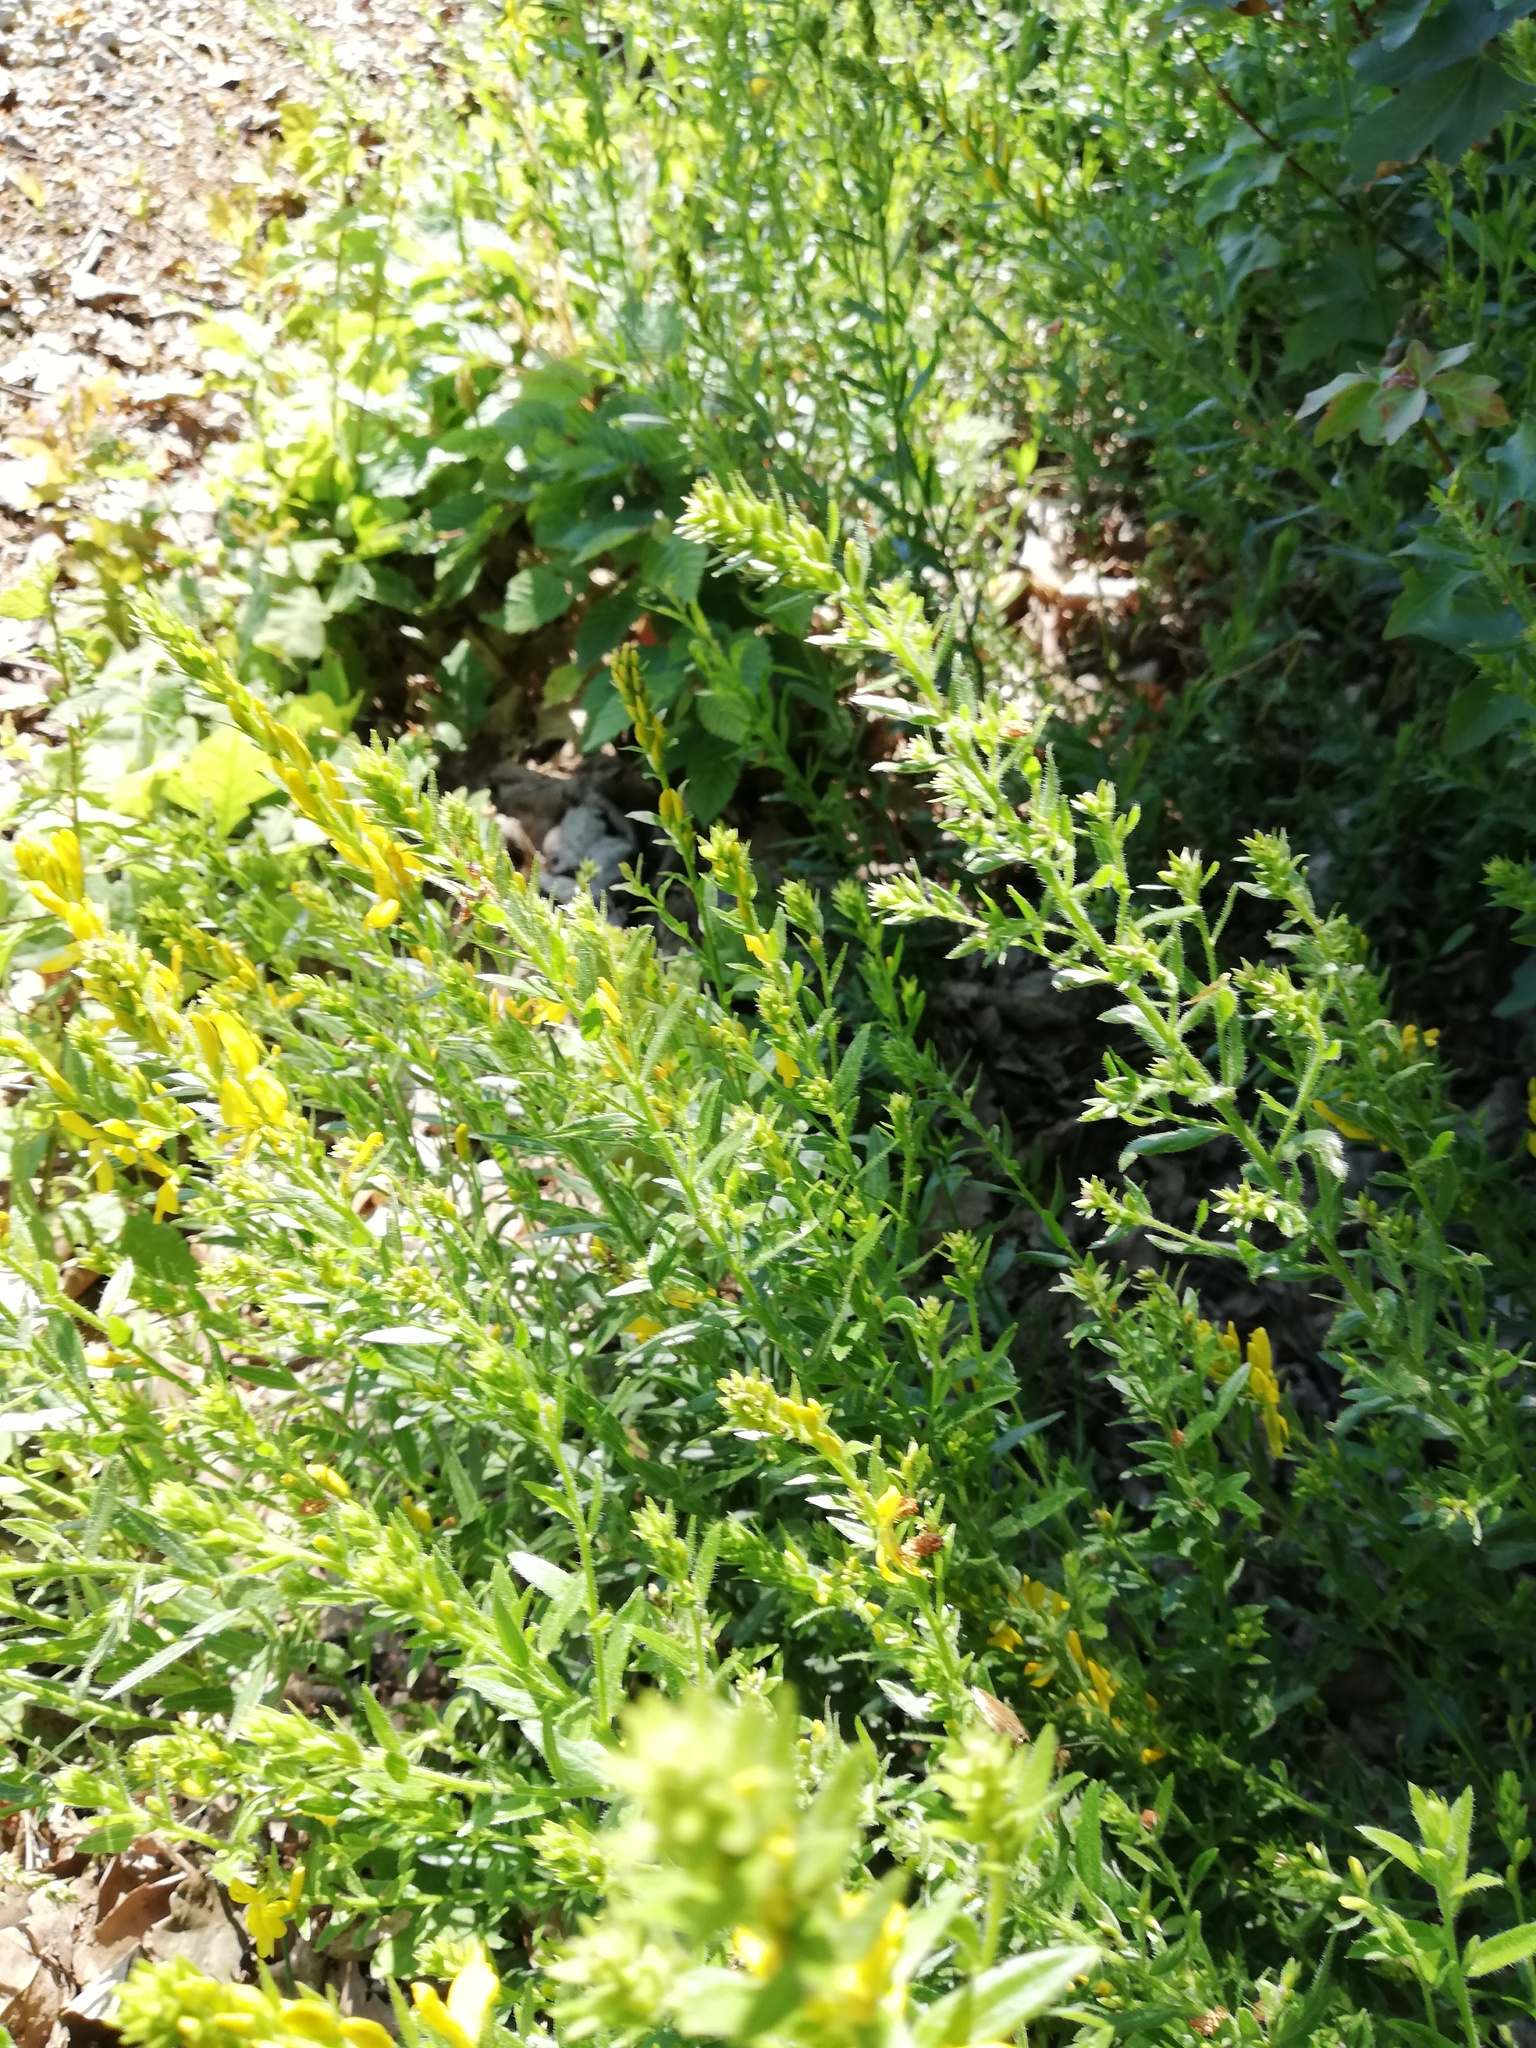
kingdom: Plantae
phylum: Tracheophyta
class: Magnoliopsida
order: Fabales
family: Fabaceae
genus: Genista
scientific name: Genista tinctoria
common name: Dyer's greenweed
